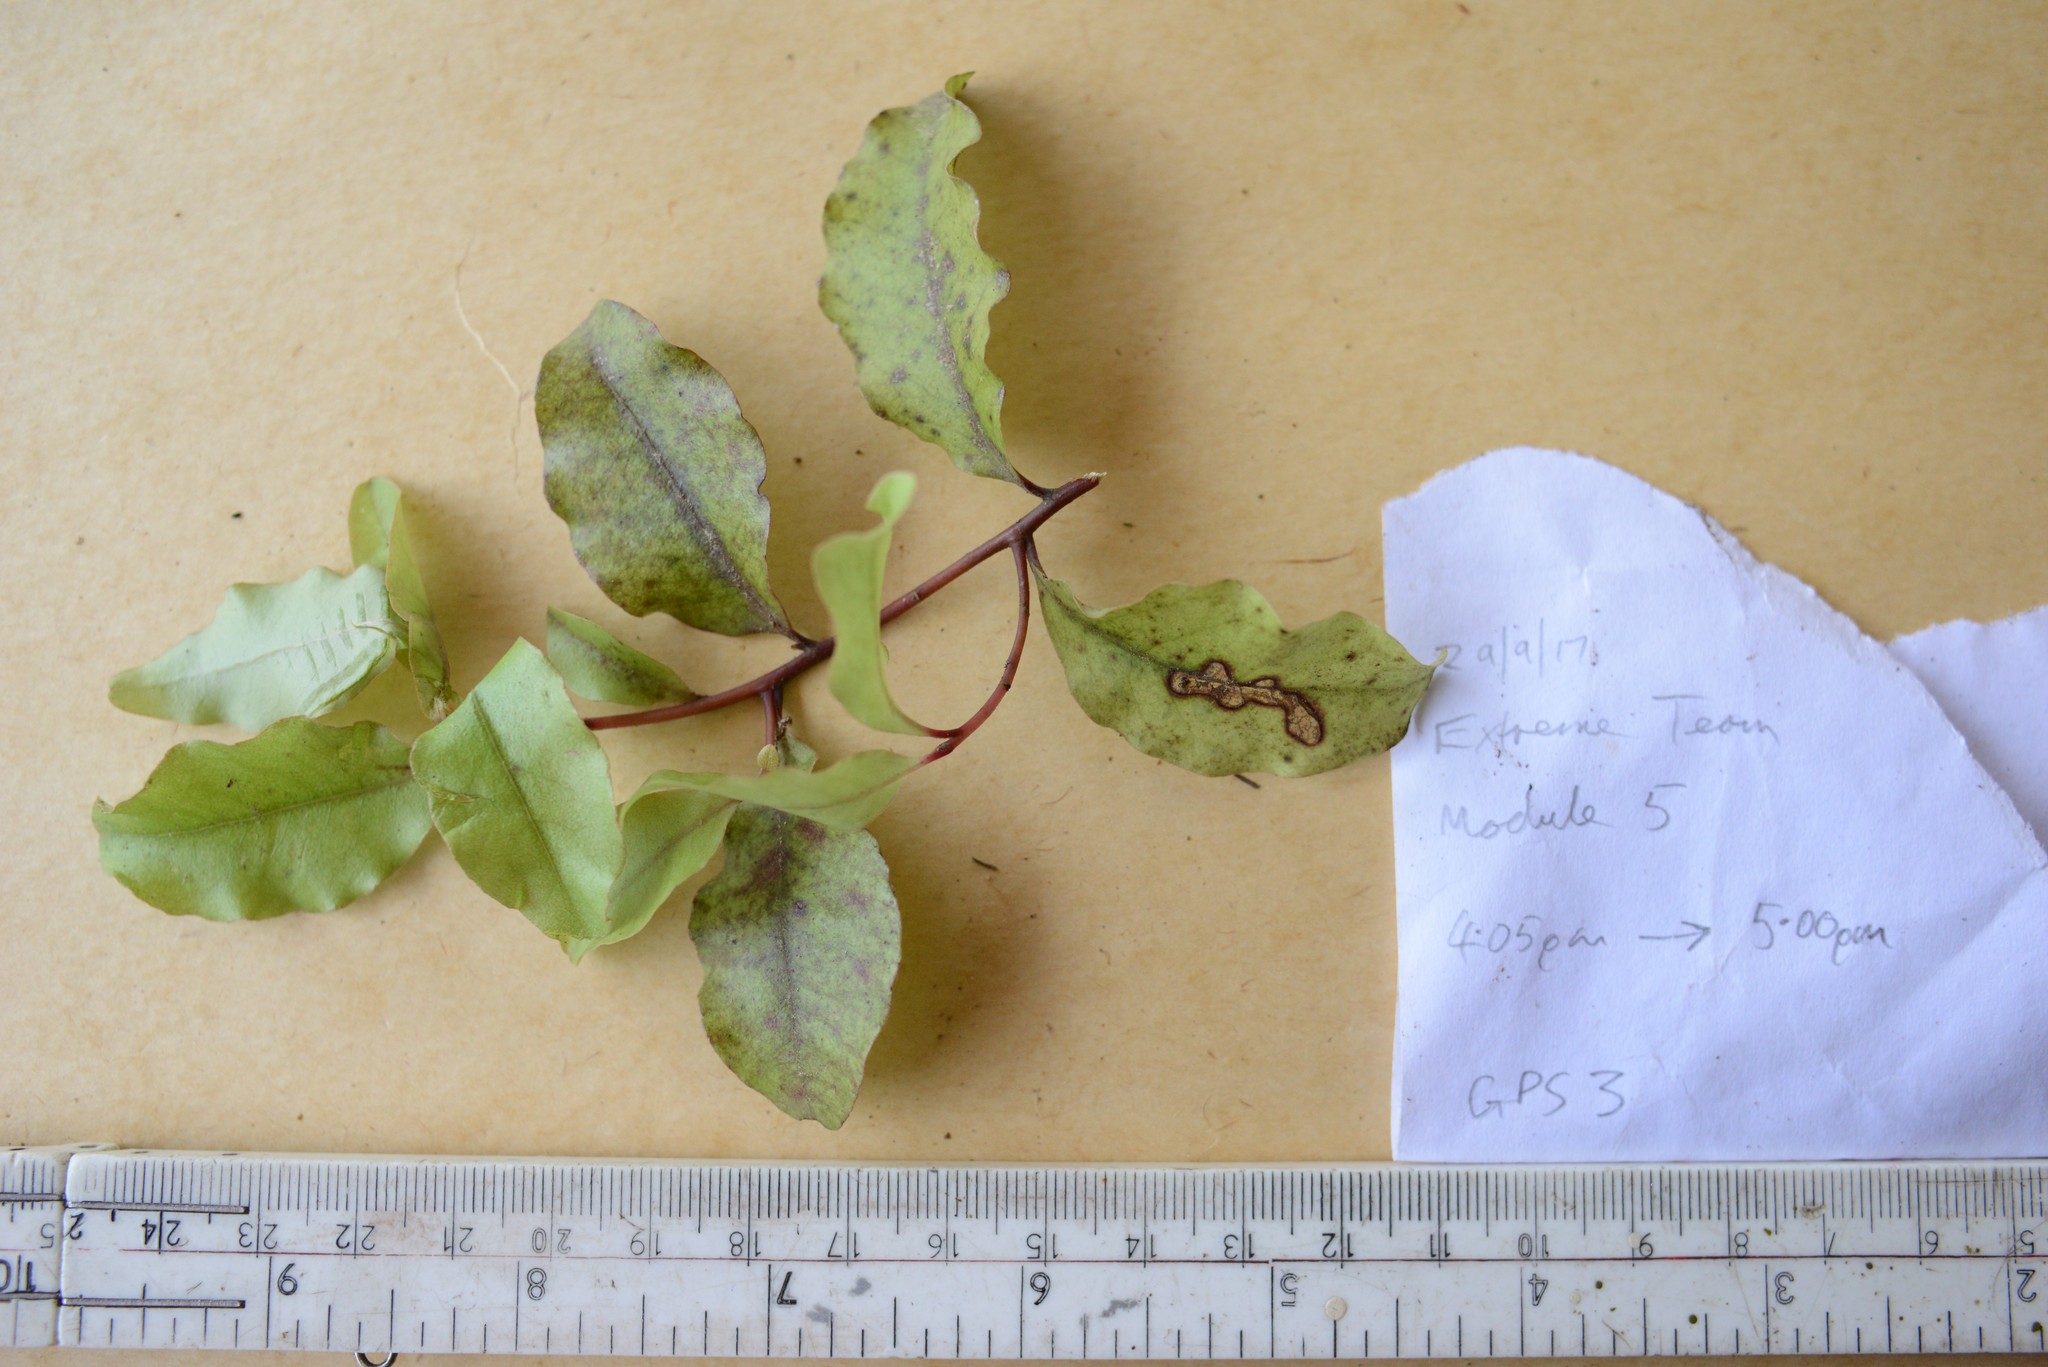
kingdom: Plantae
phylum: Tracheophyta
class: Magnoliopsida
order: Ericales
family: Primulaceae
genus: Myrsine
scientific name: Myrsine australis
